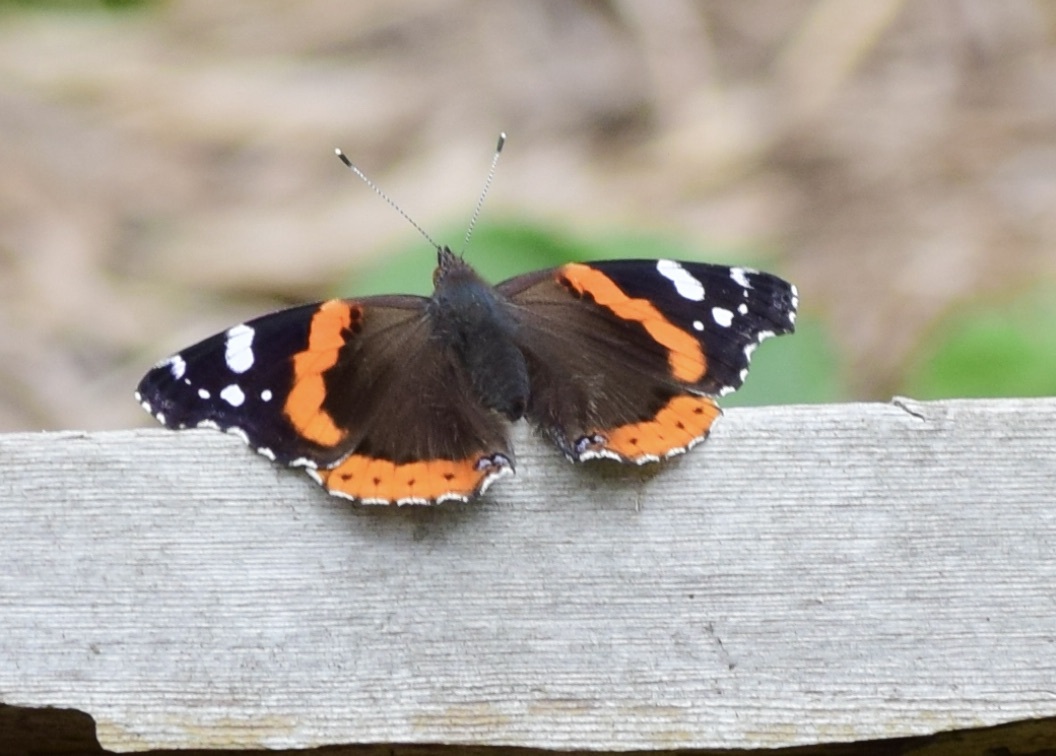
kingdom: Animalia
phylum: Arthropoda
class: Insecta
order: Lepidoptera
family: Nymphalidae
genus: Vanessa
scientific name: Vanessa atalanta
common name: Red admiral
